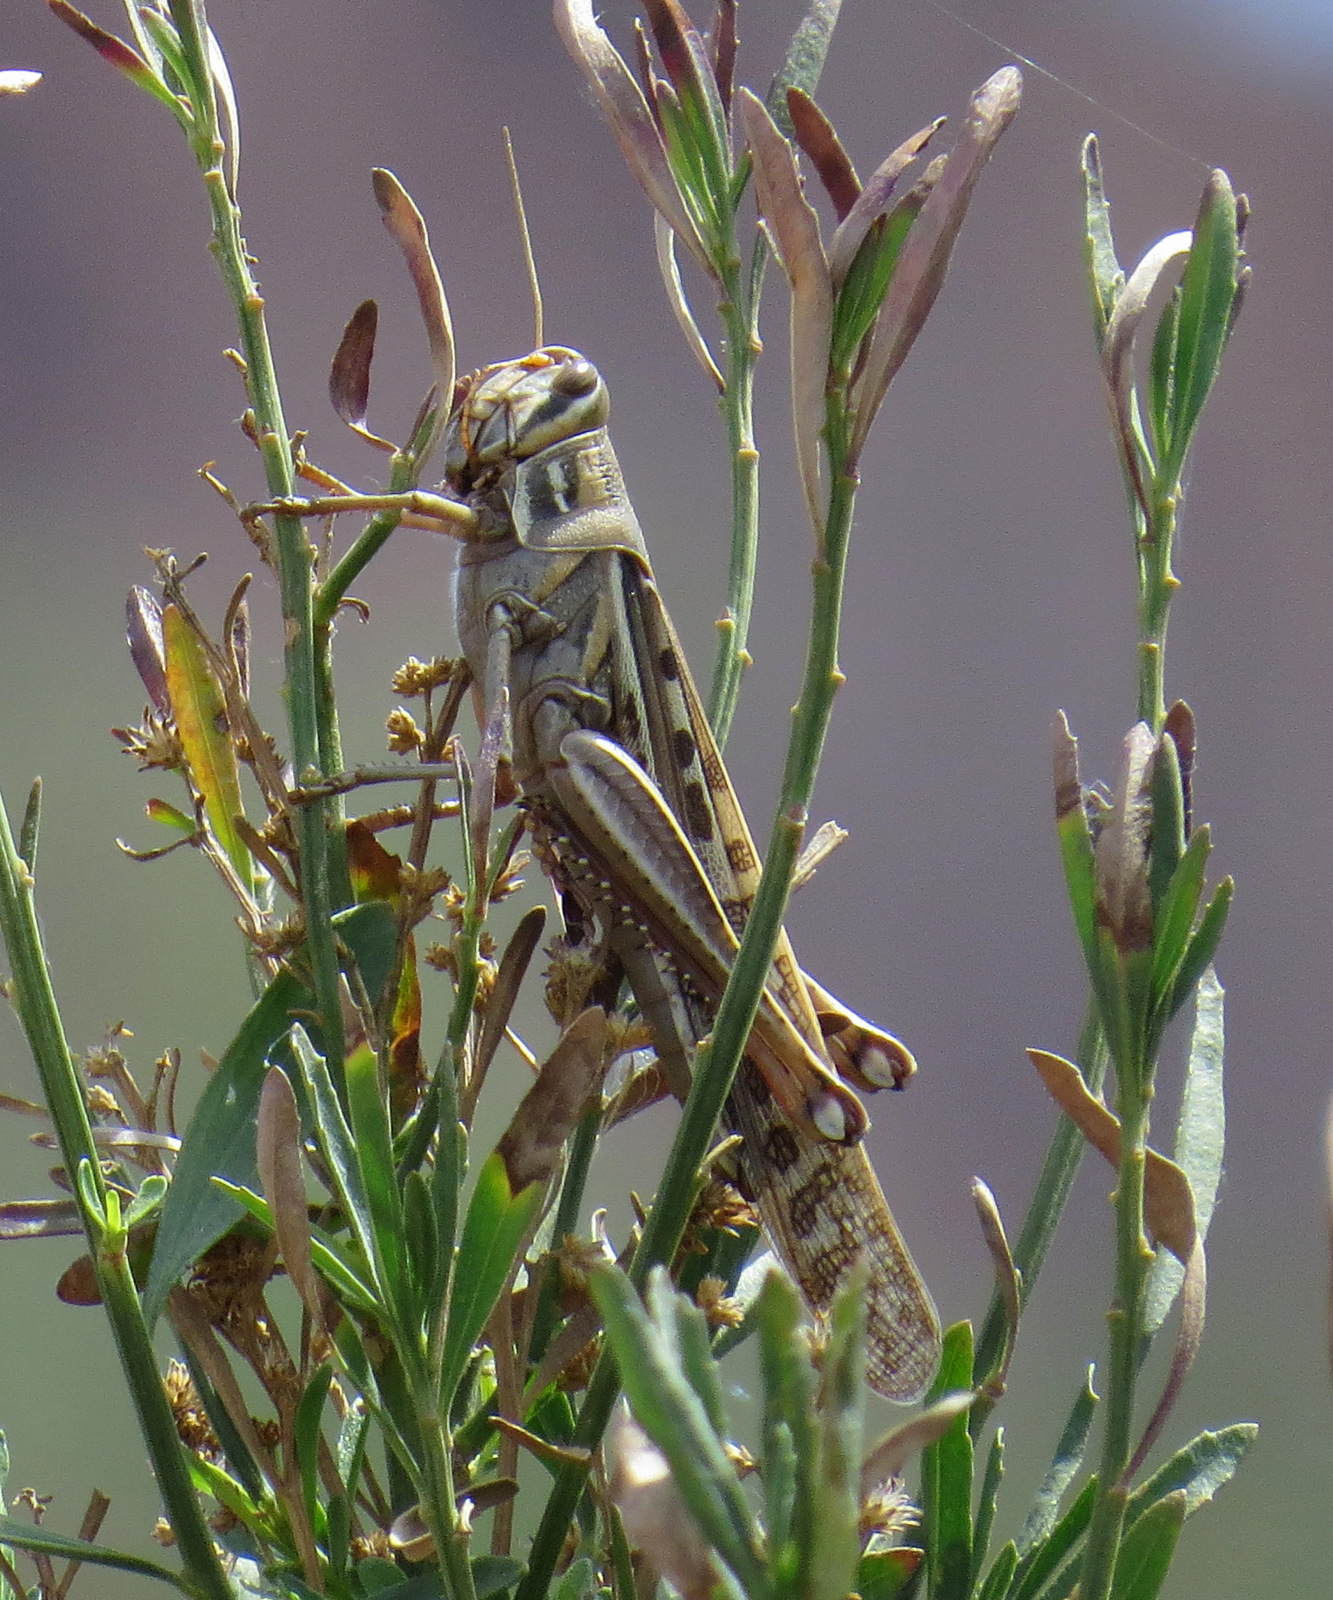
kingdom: Animalia
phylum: Arthropoda
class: Insecta
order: Orthoptera
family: Acrididae
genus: Schistocerca
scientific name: Schistocerca americana
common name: American bird locust
